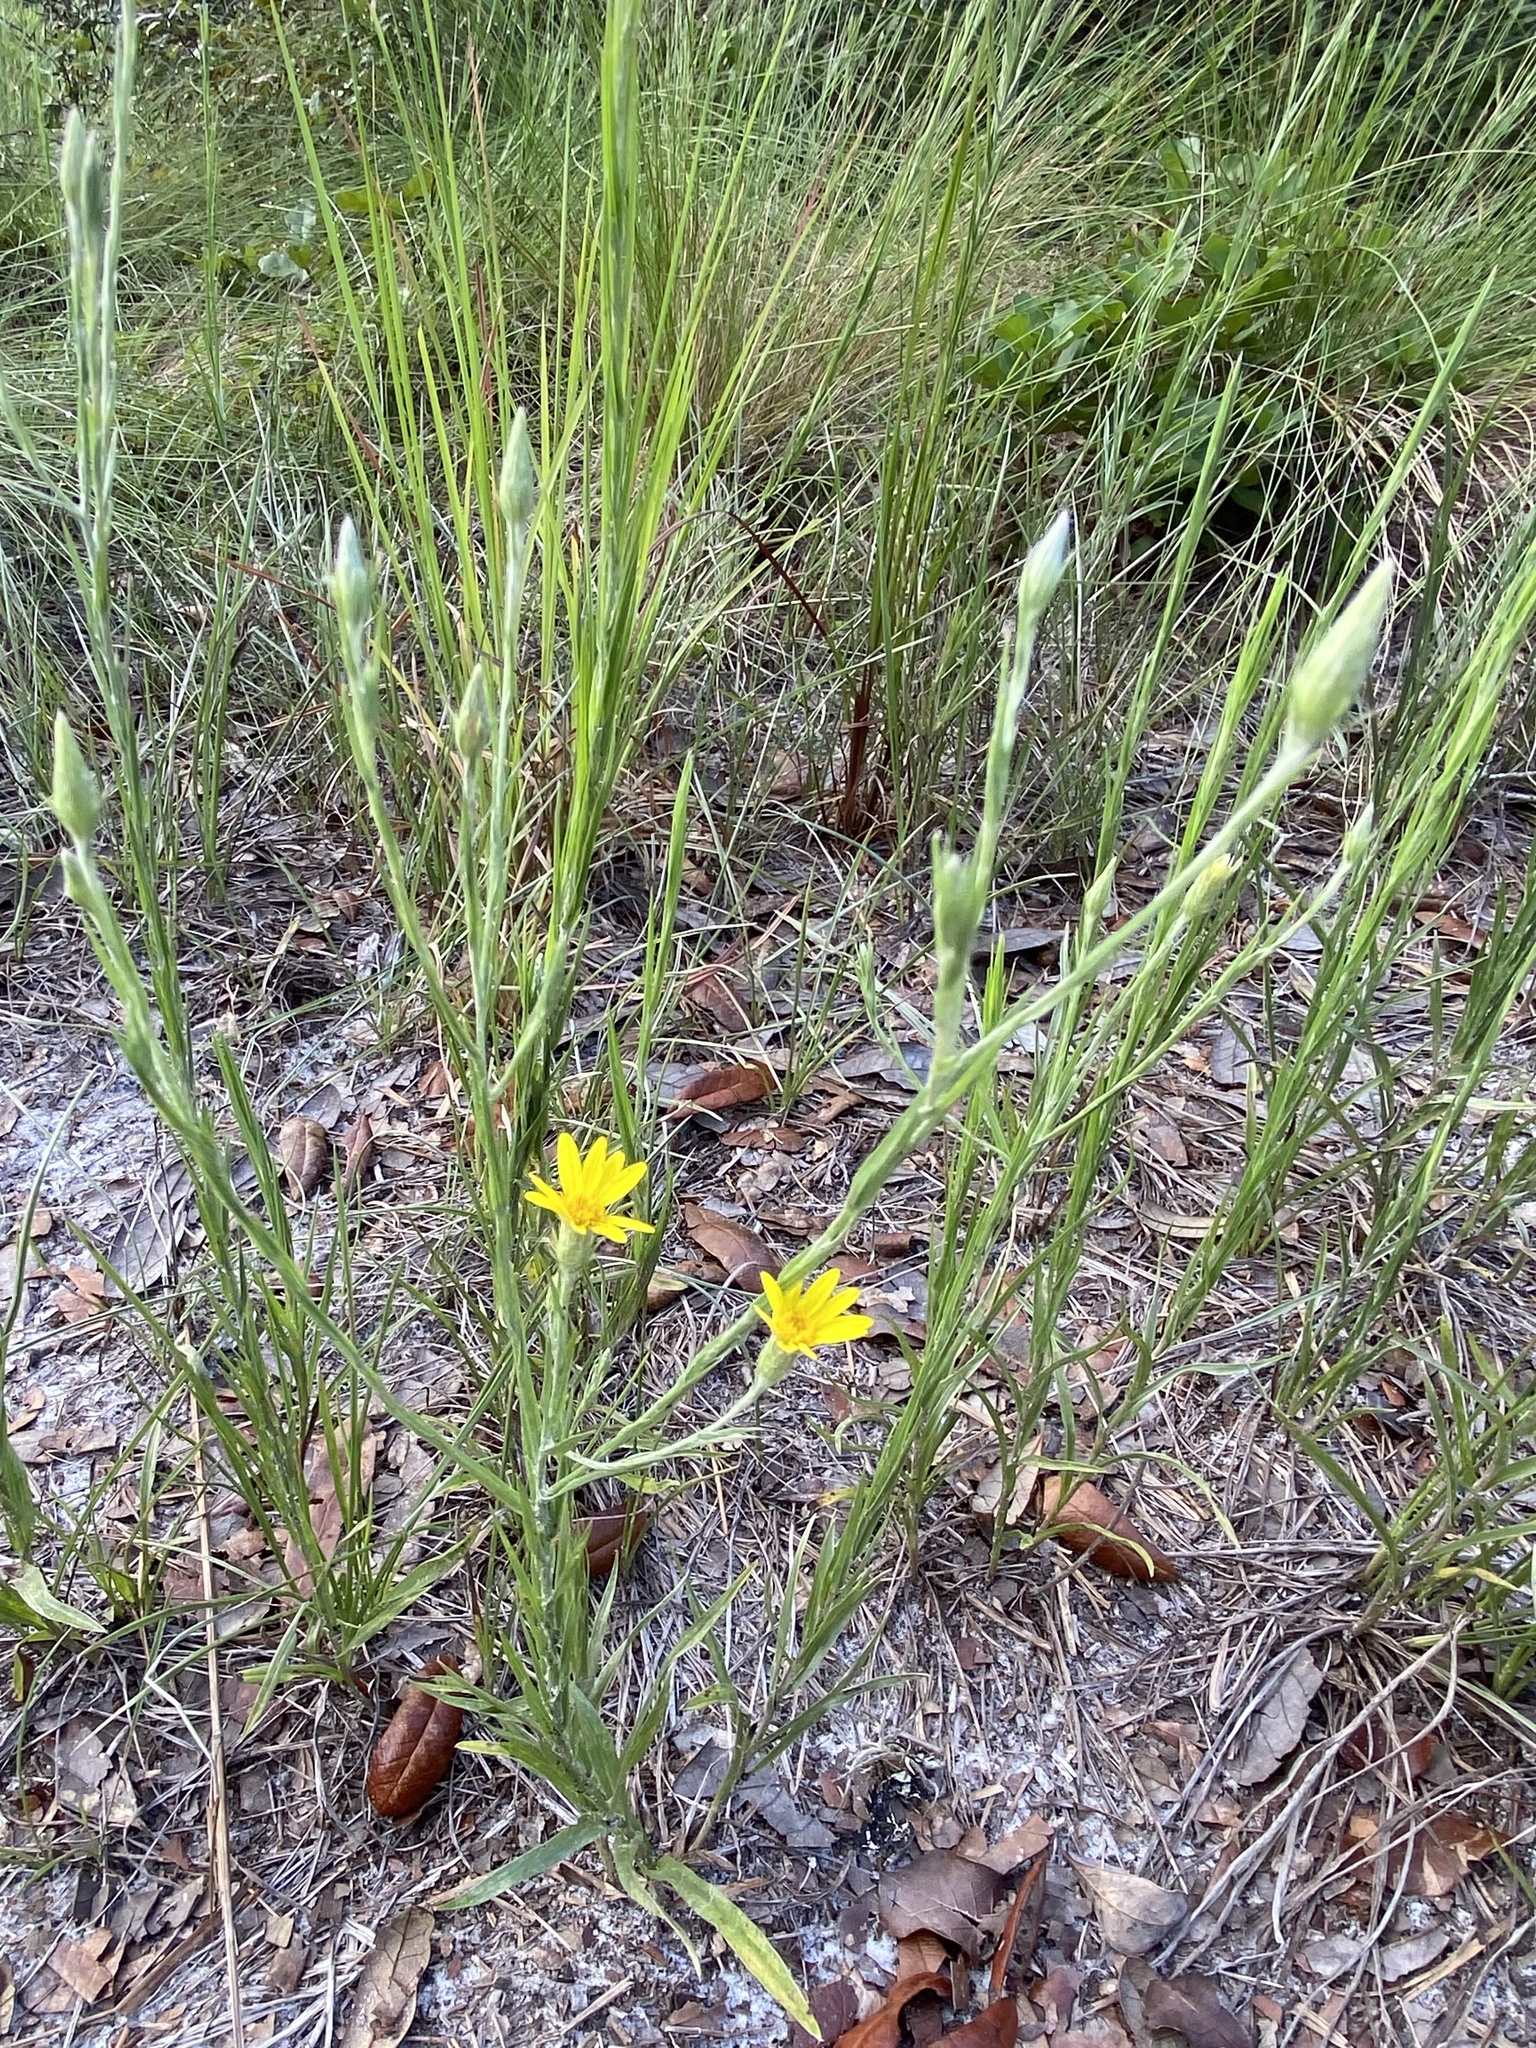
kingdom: Plantae
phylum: Tracheophyta
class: Magnoliopsida
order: Asterales
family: Asteraceae
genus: Pityopsis
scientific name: Pityopsis graminifolia
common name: Grass-leaf golden-aster
